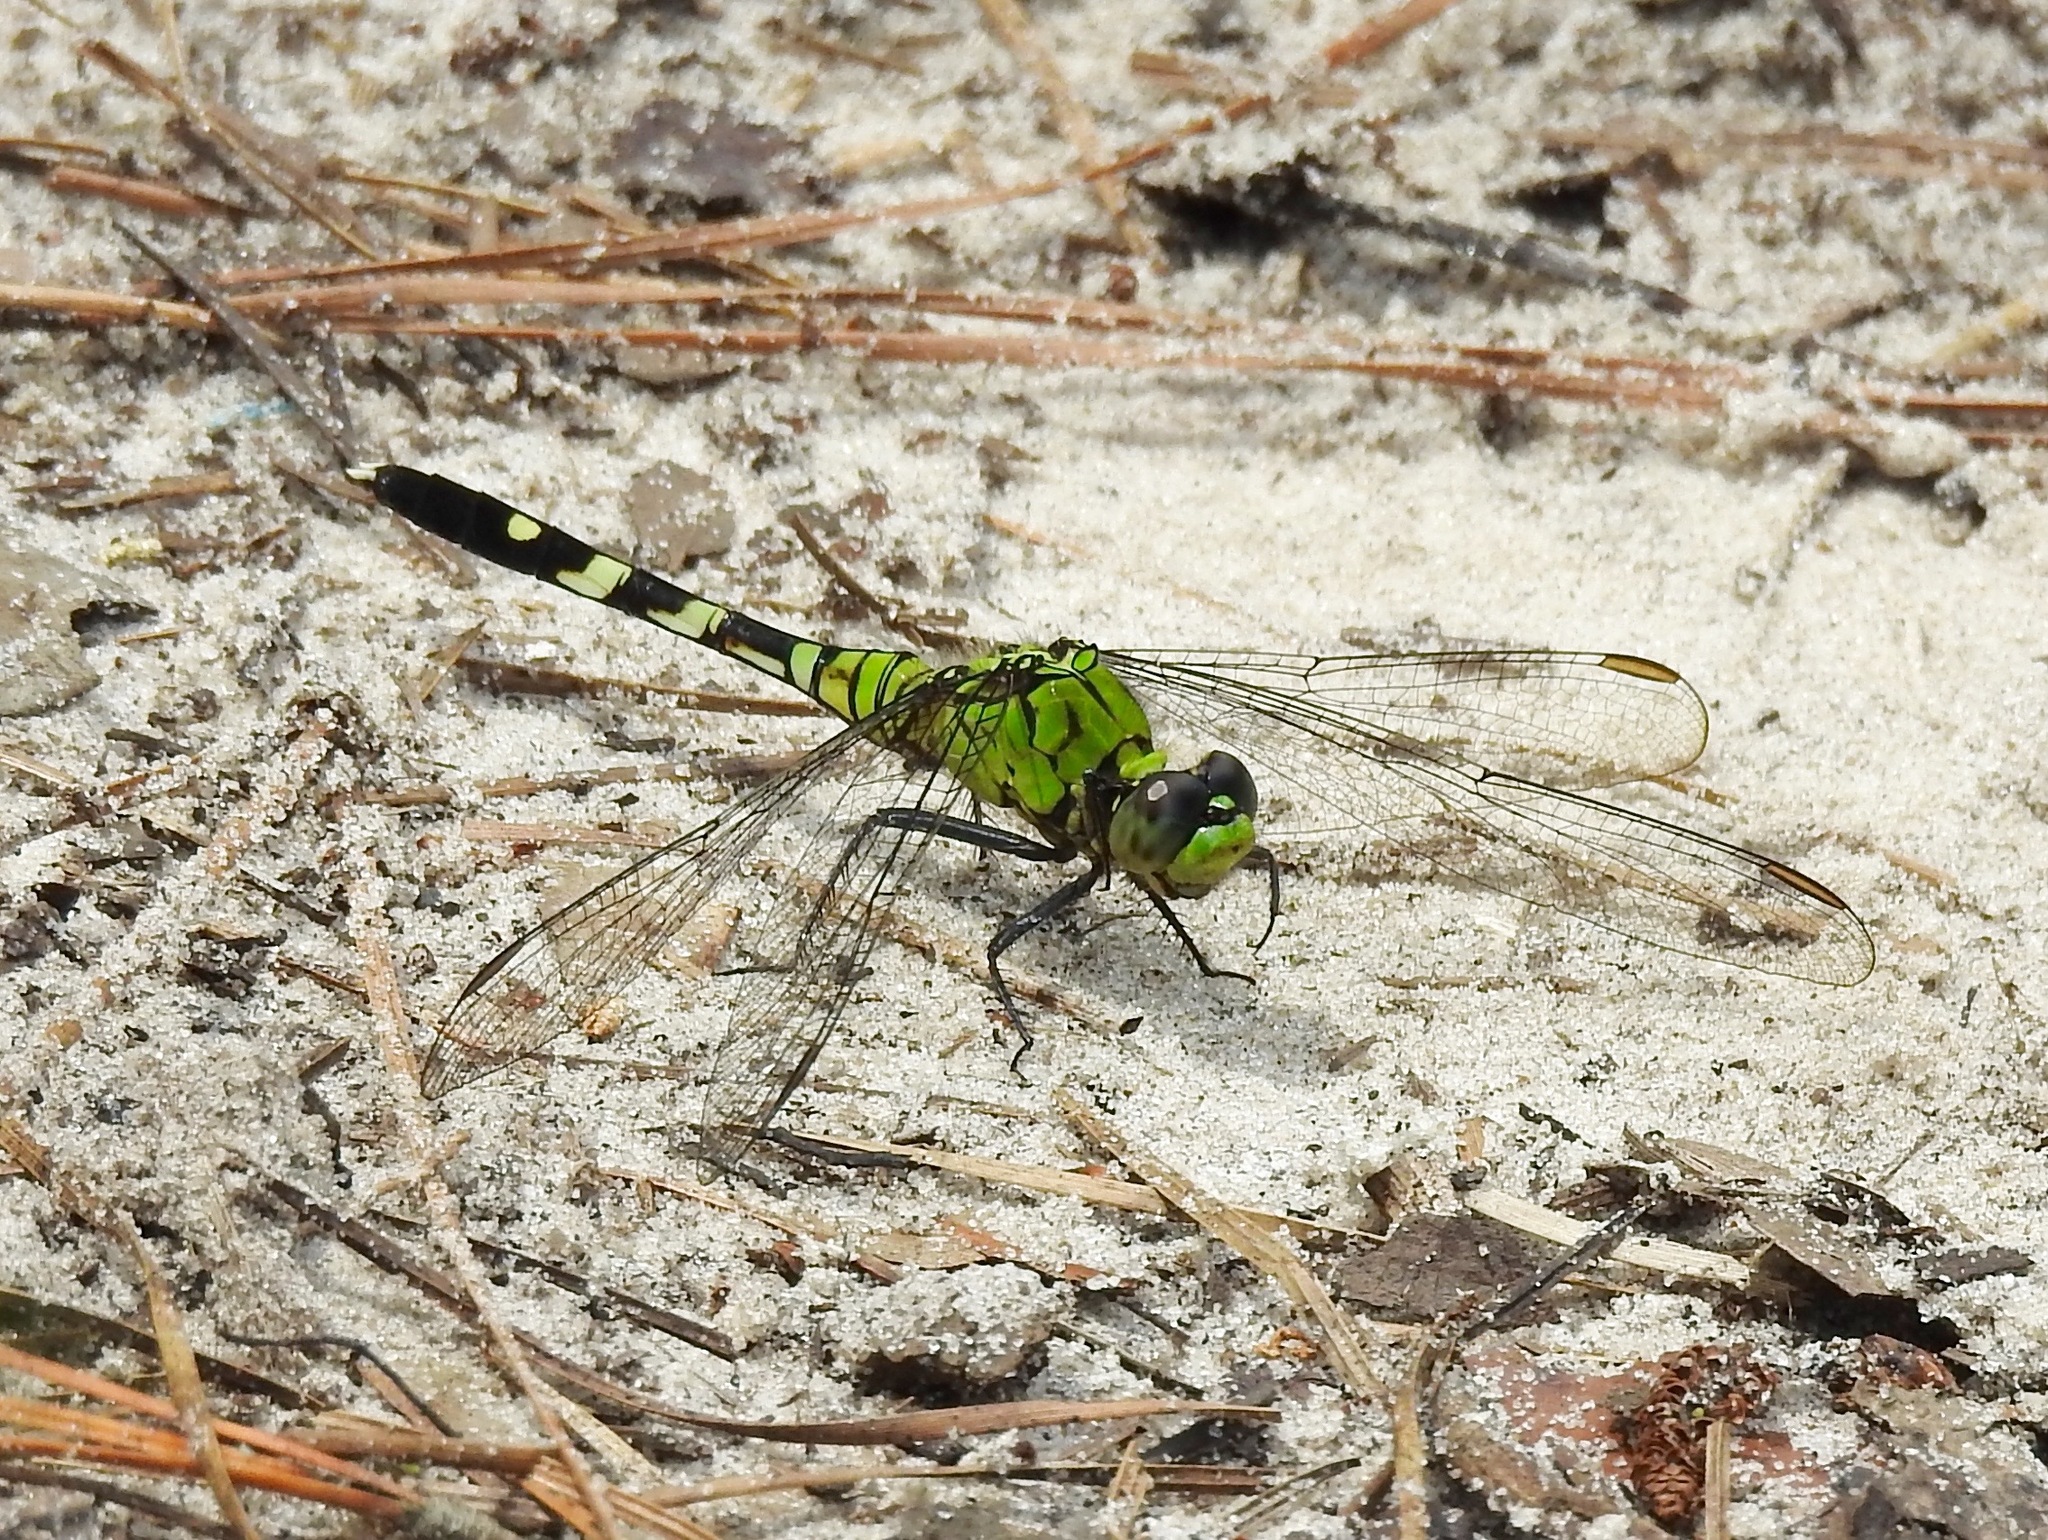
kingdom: Animalia
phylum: Arthropoda
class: Insecta
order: Odonata
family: Libellulidae
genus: Erythemis
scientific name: Erythemis simplicicollis
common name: Eastern pondhawk
